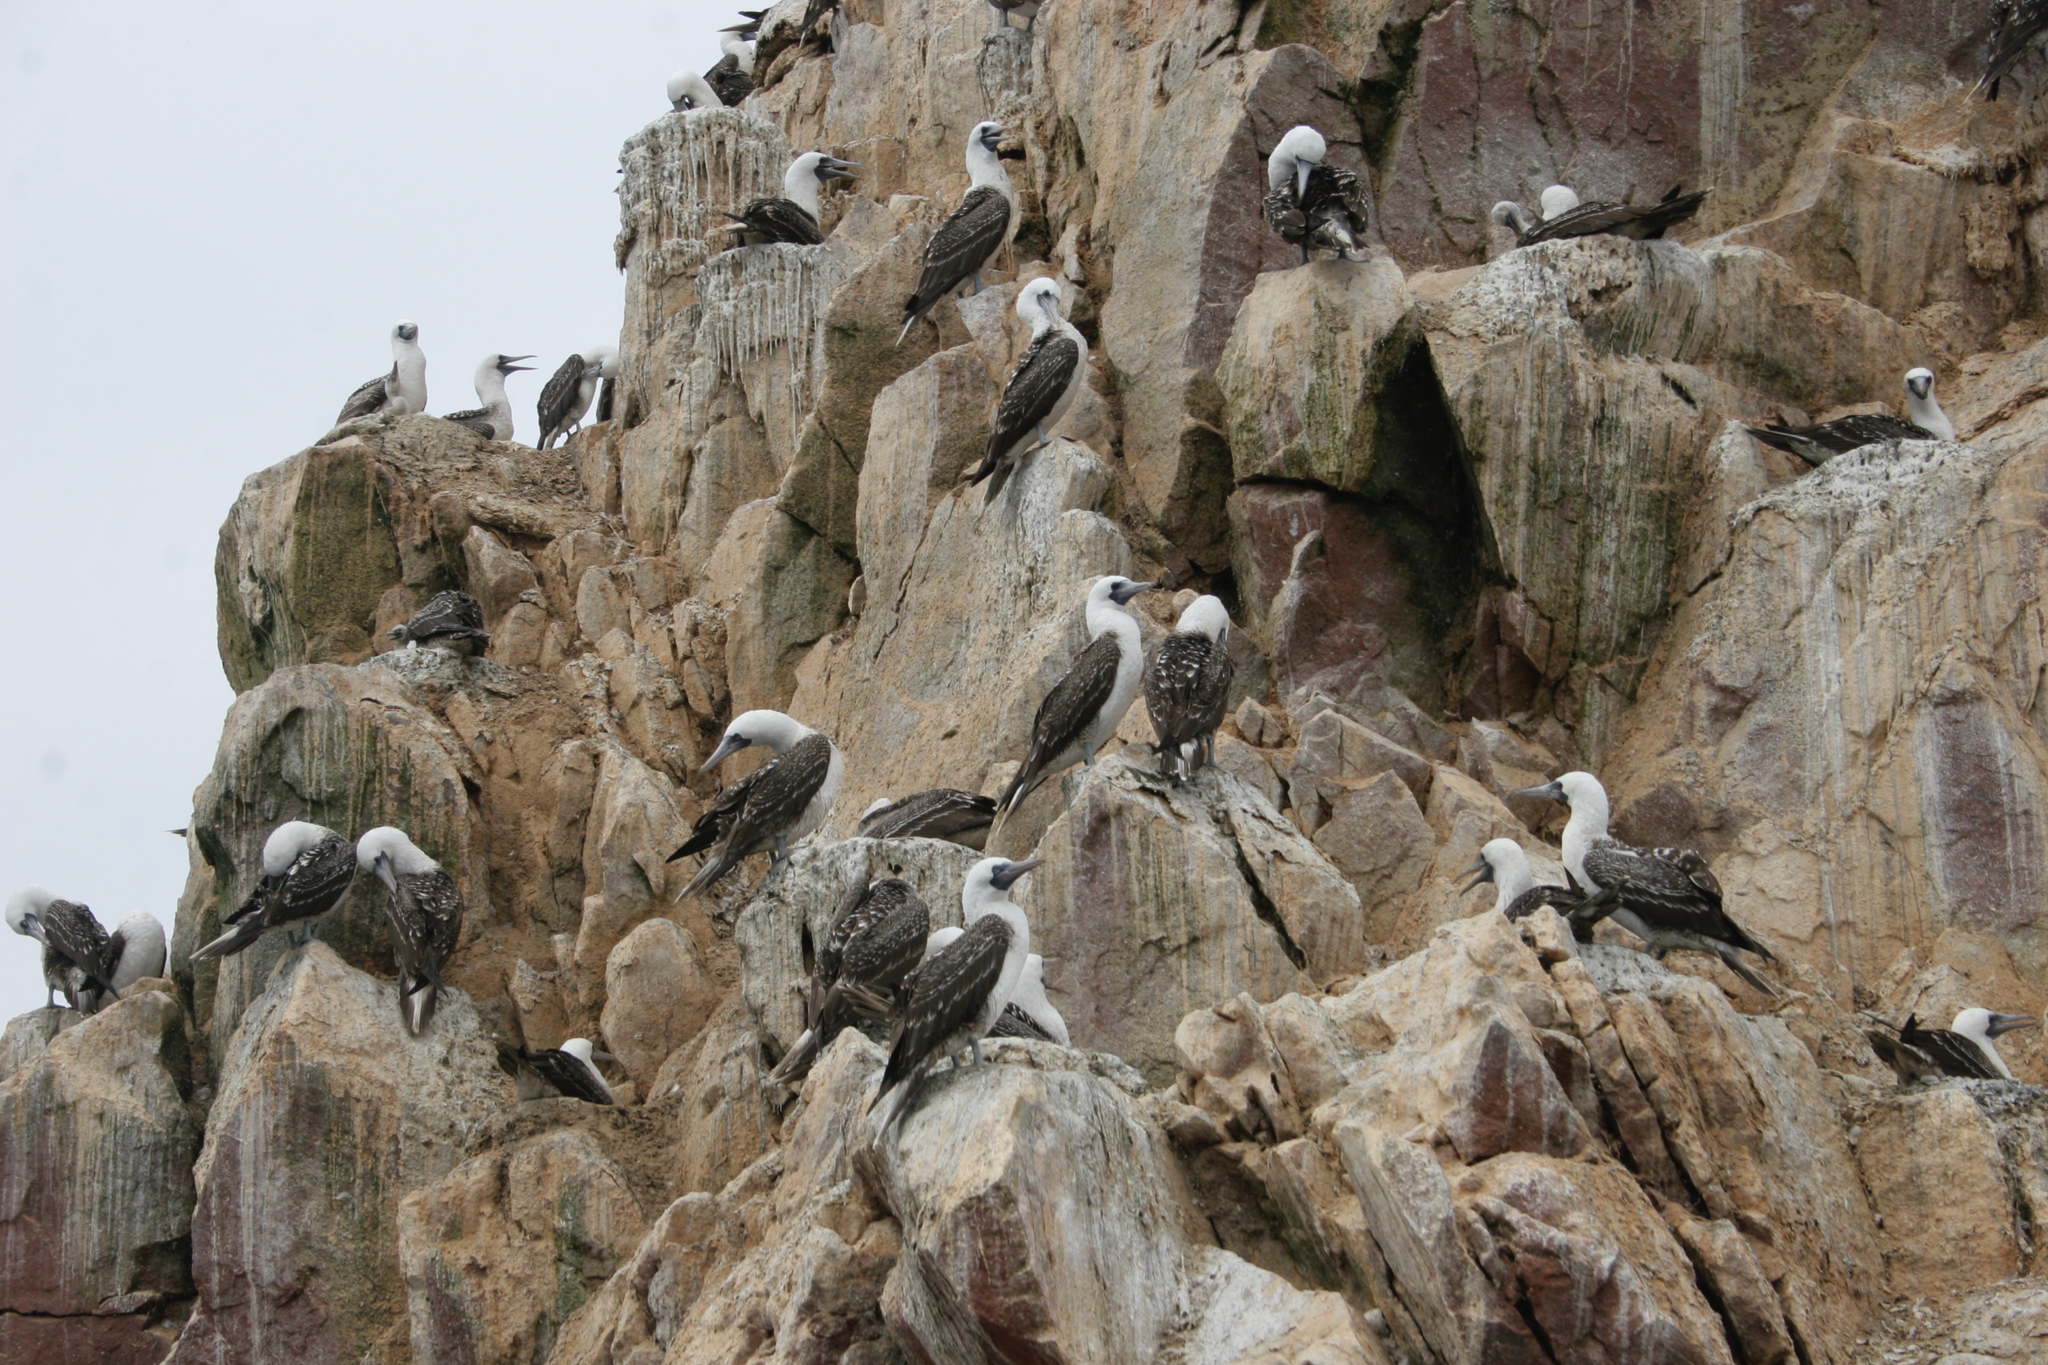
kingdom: Animalia
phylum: Chordata
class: Aves
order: Suliformes
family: Sulidae
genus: Sula
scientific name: Sula variegata
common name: Peruvian booby
